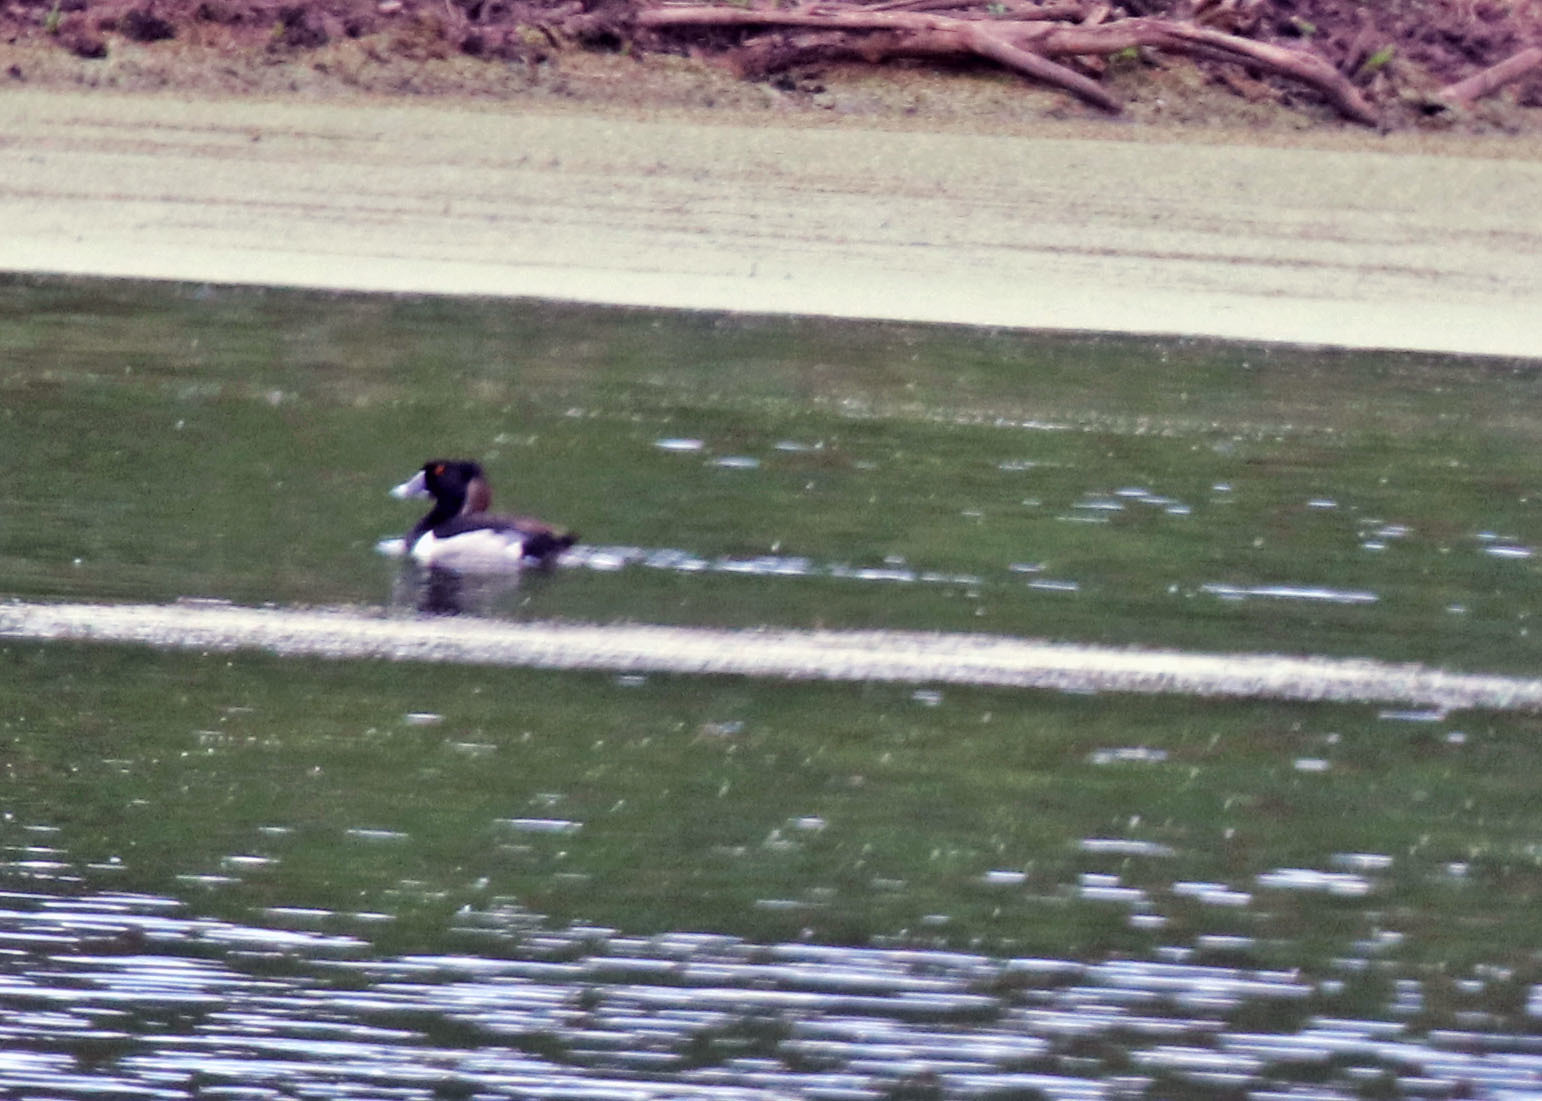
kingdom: Animalia
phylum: Chordata
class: Aves
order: Anseriformes
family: Anatidae
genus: Aythya
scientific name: Aythya collaris
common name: Ring-necked duck
